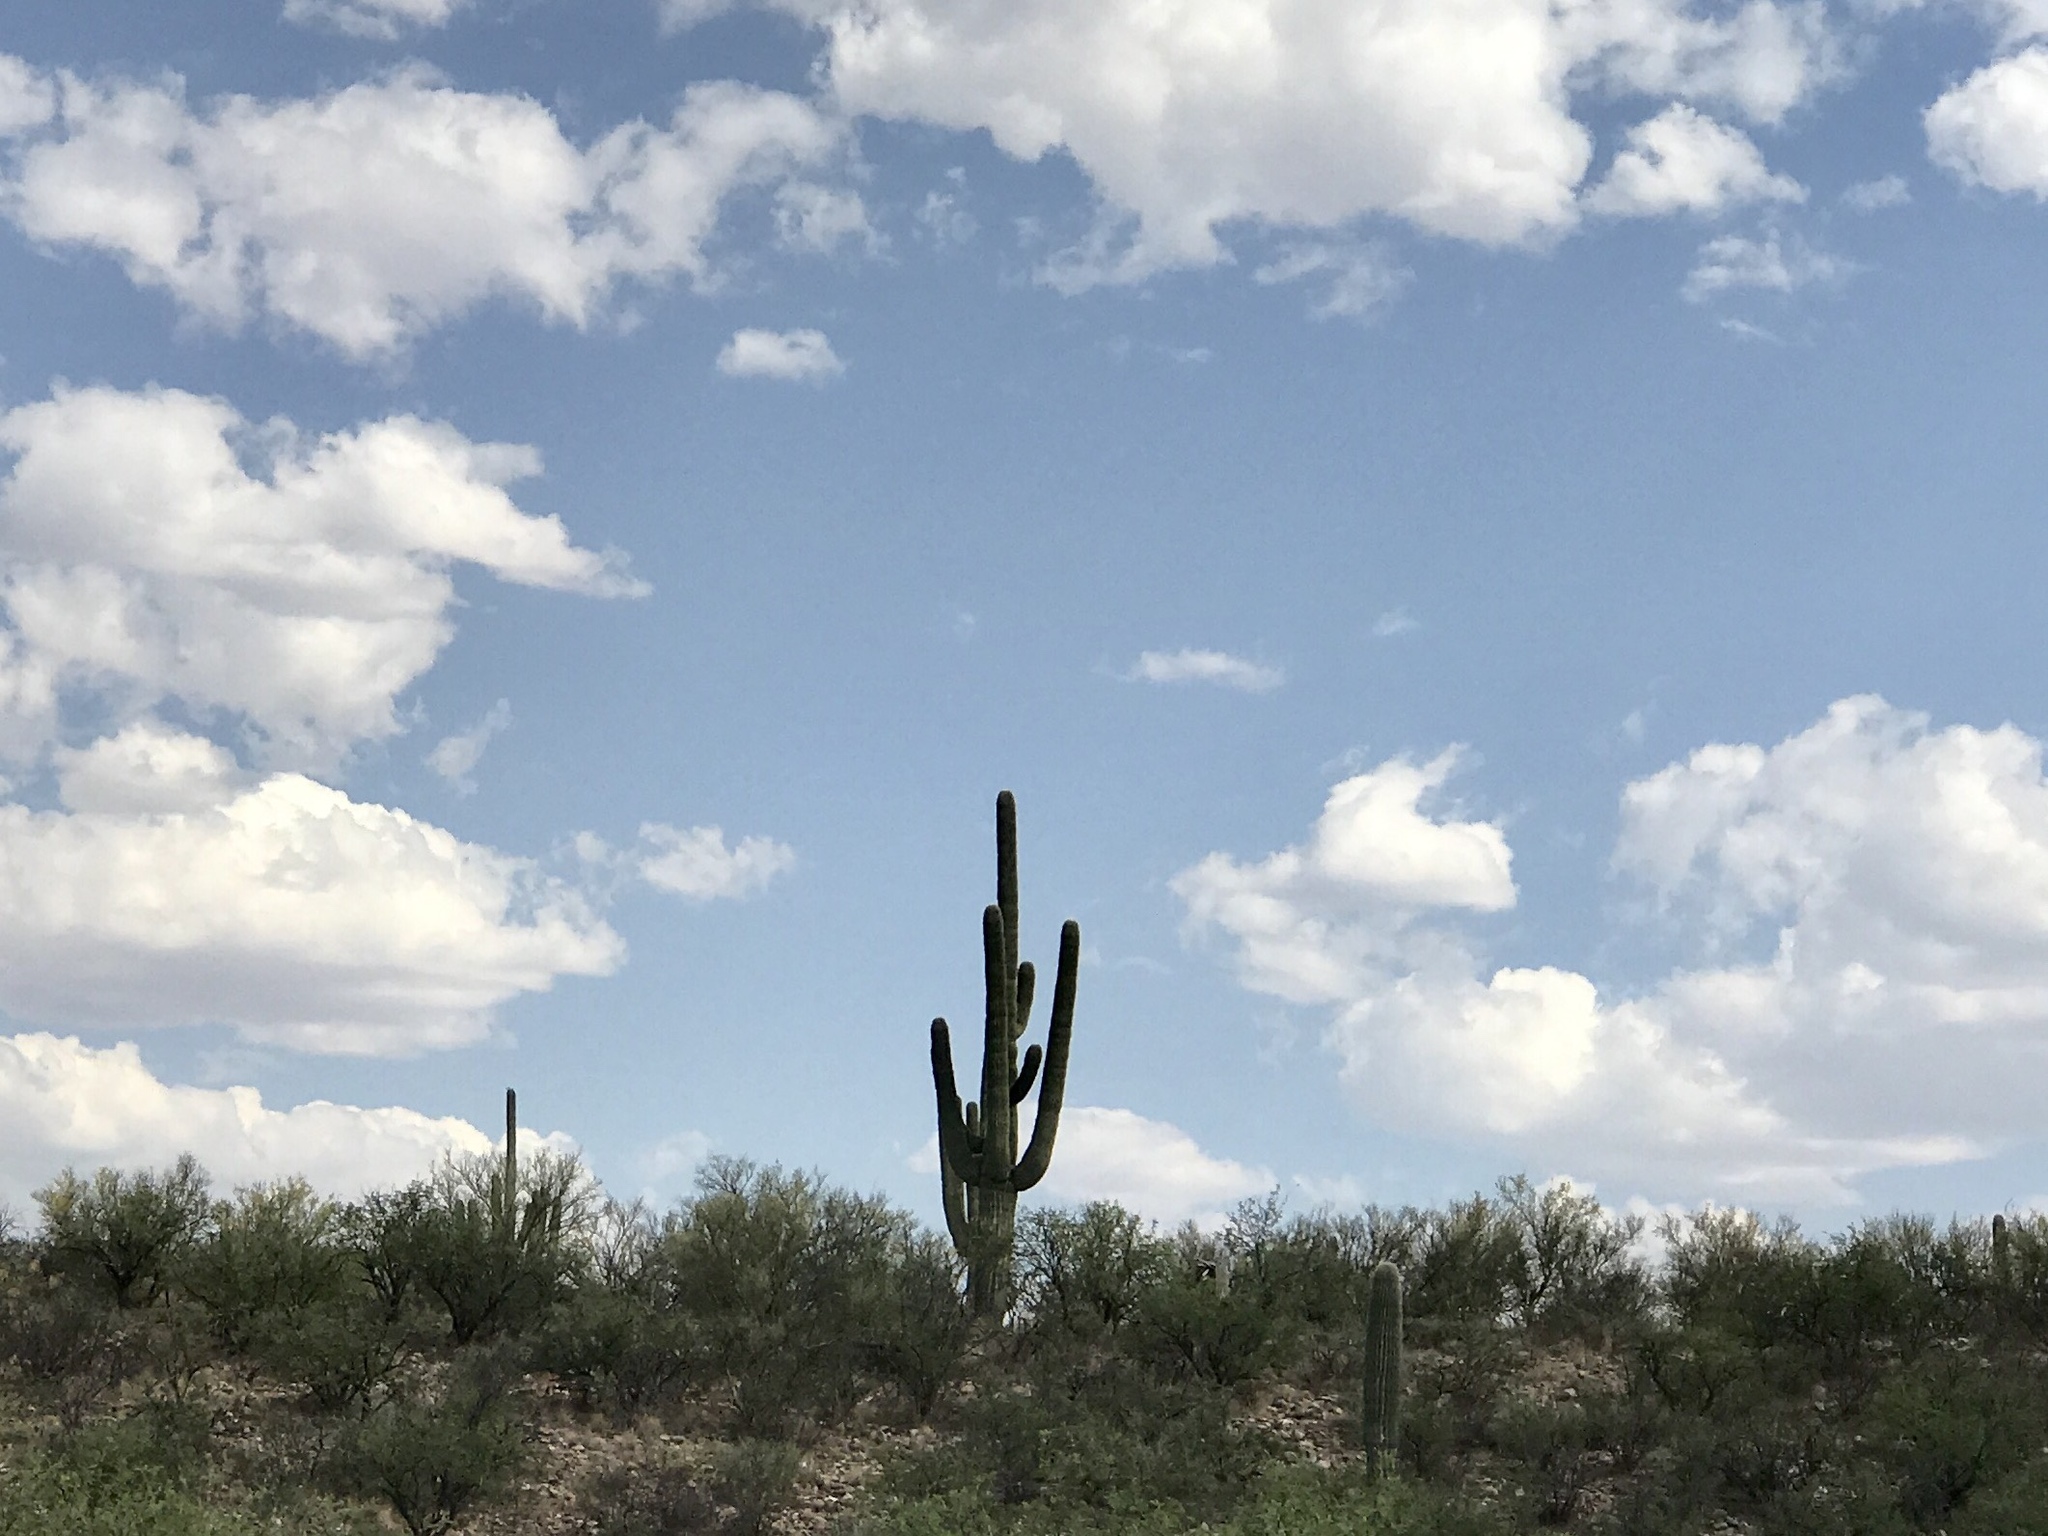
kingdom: Plantae
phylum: Tracheophyta
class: Magnoliopsida
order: Caryophyllales
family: Cactaceae
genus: Carnegiea
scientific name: Carnegiea gigantea
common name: Saguaro
